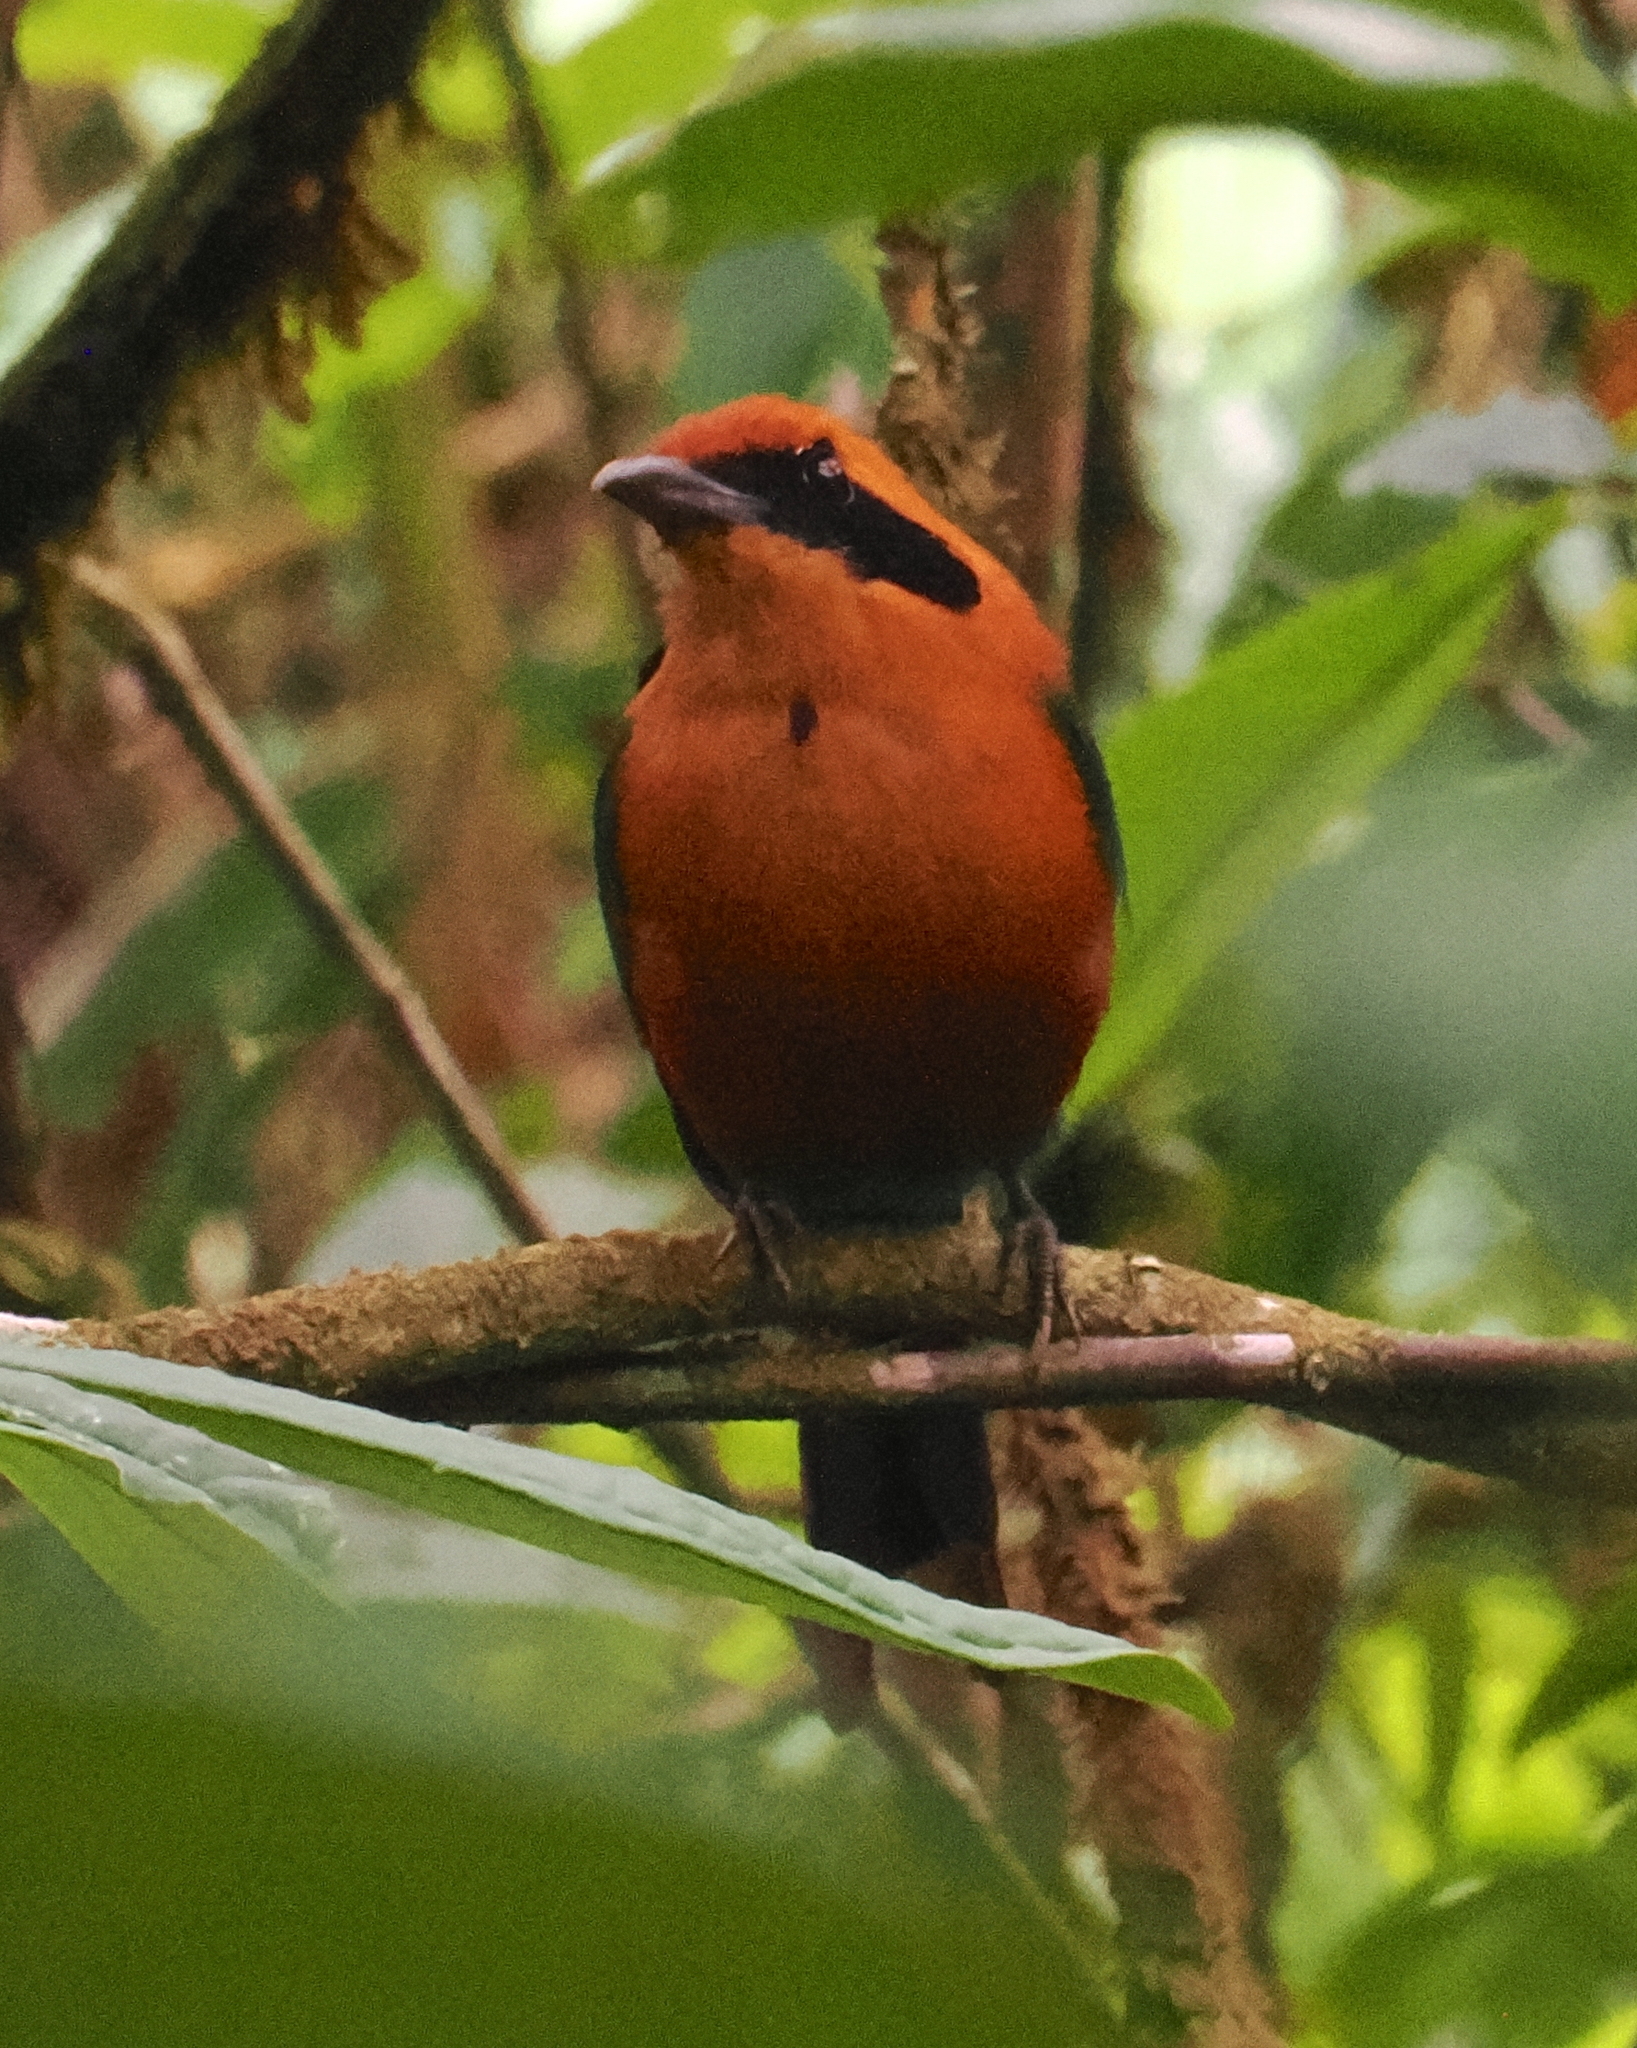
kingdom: Animalia
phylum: Chordata
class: Aves
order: Coraciiformes
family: Momotidae
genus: Baryphthengus
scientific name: Baryphthengus martii
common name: Rufous motmot
